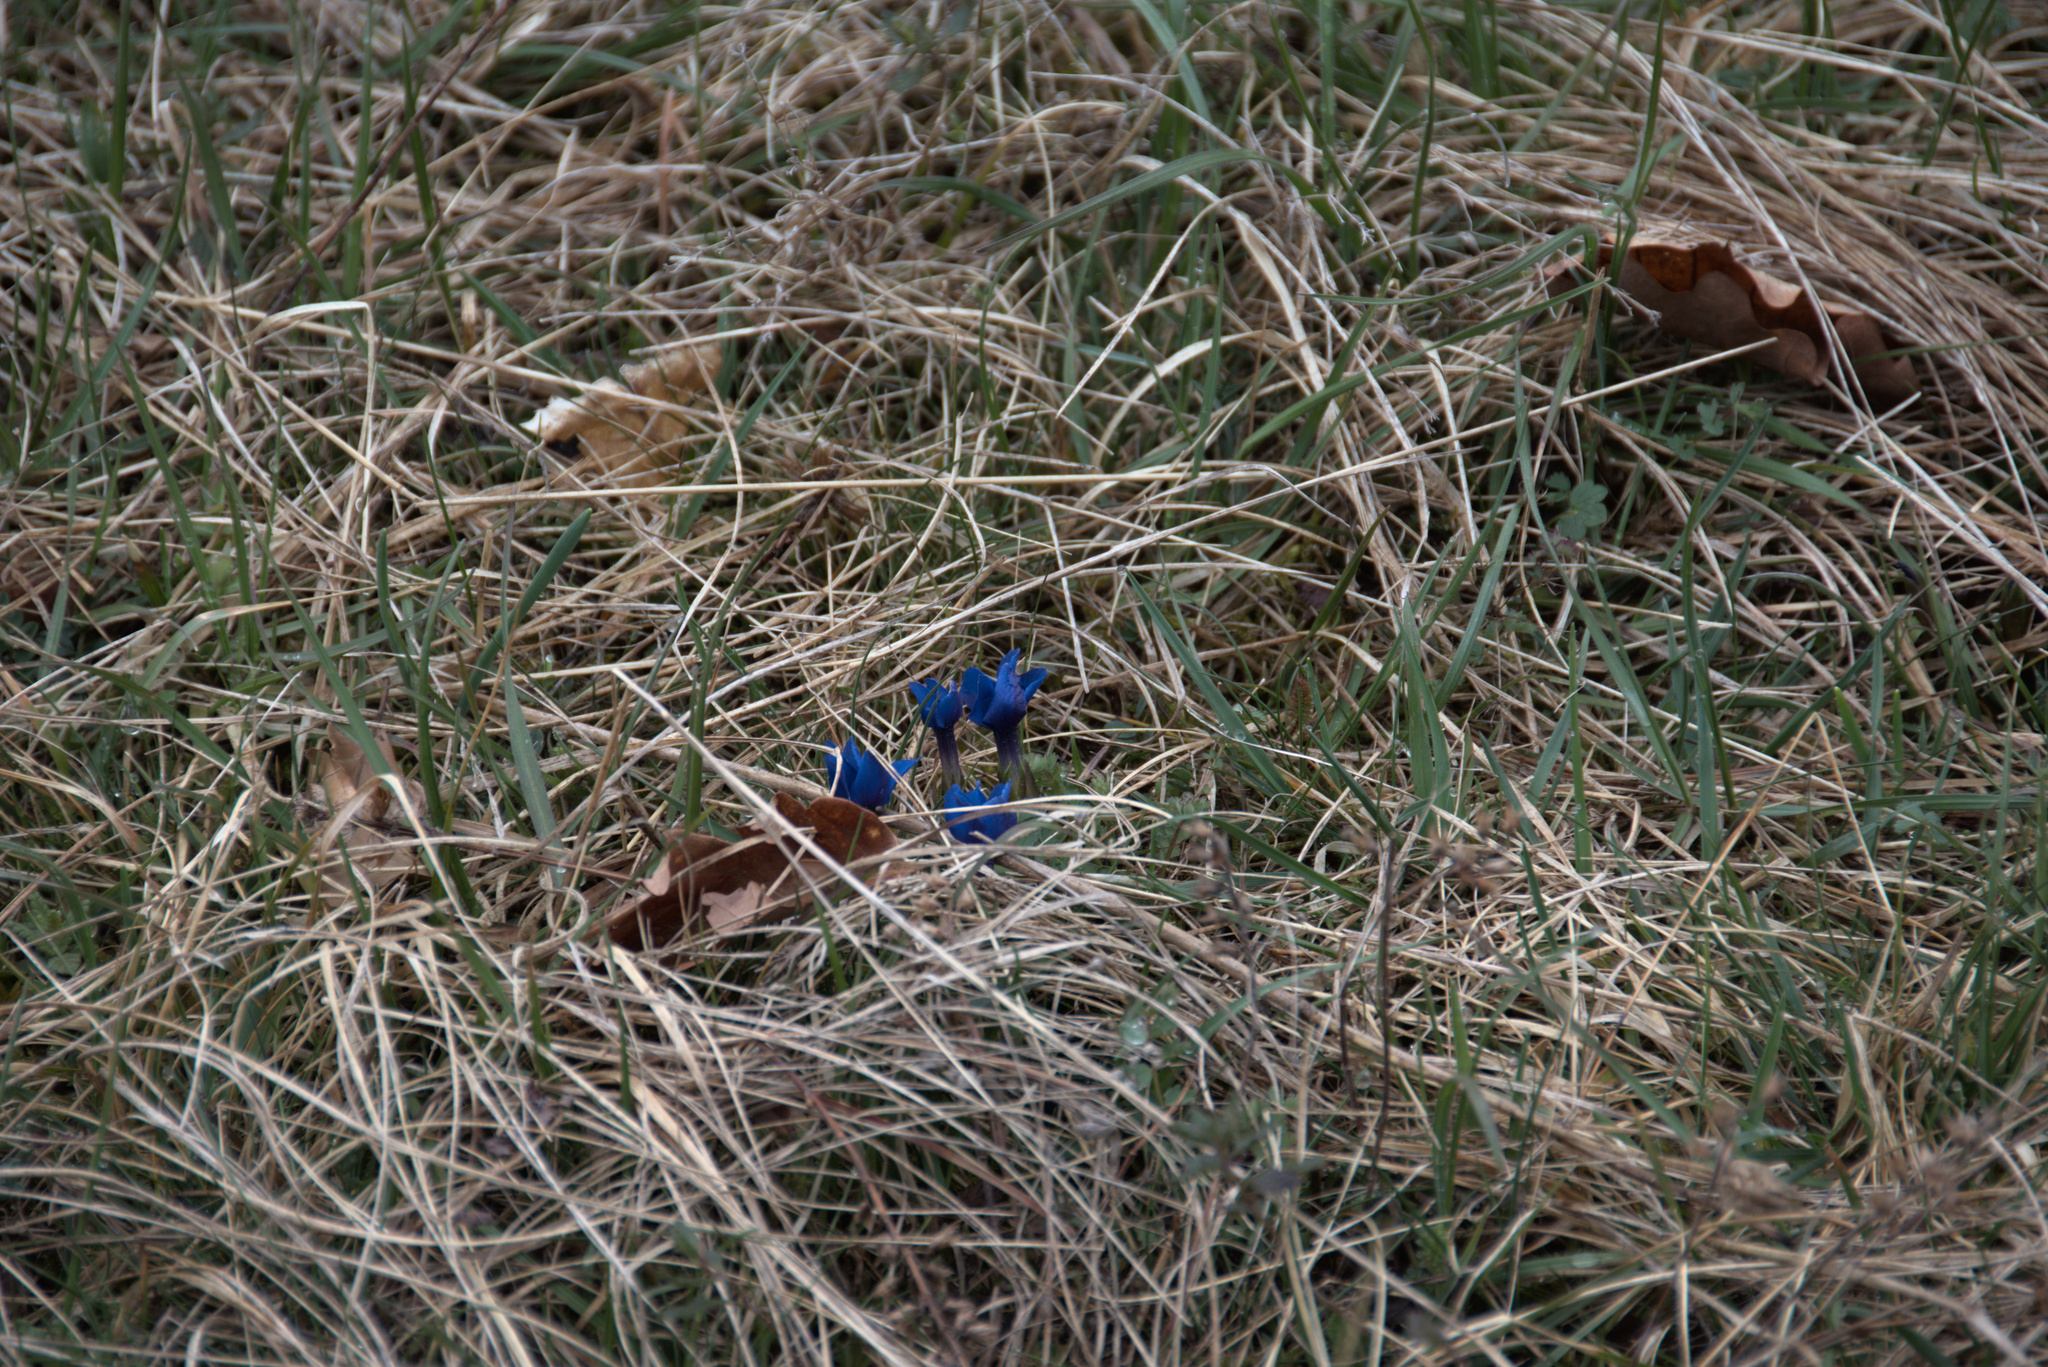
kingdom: Plantae
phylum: Tracheophyta
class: Magnoliopsida
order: Gentianales
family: Gentianaceae
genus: Gentiana
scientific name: Gentiana verna
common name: Spring gentian
